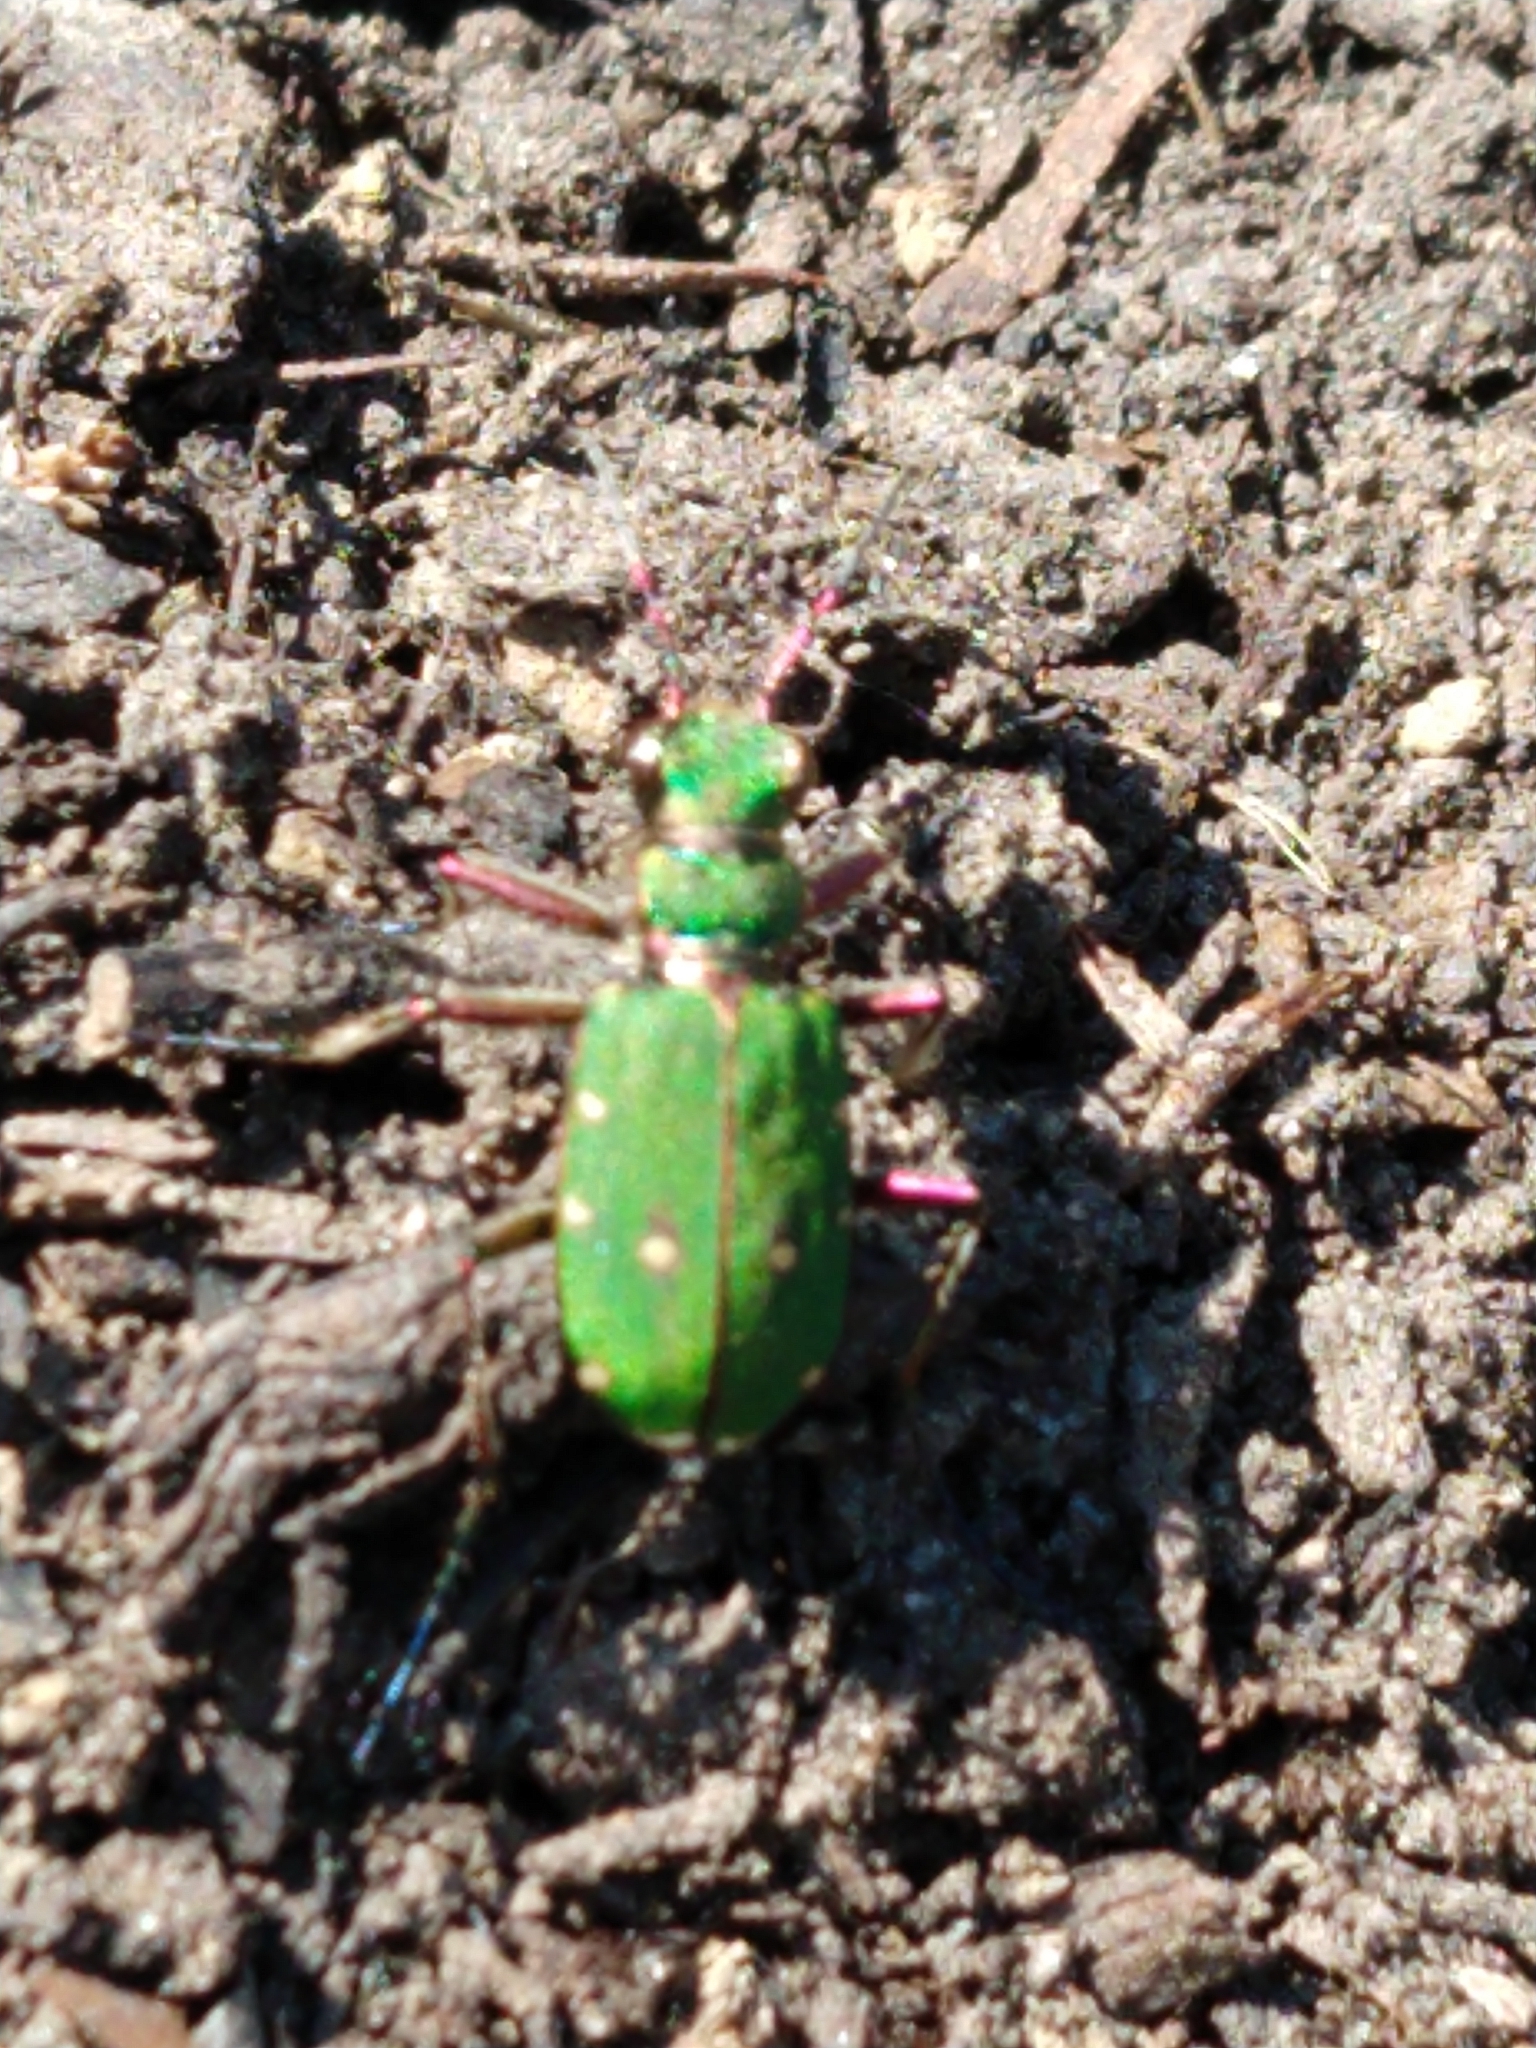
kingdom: Animalia
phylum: Arthropoda
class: Insecta
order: Coleoptera
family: Carabidae
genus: Cicindela
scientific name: Cicindela campestris
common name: Common tiger beetle
